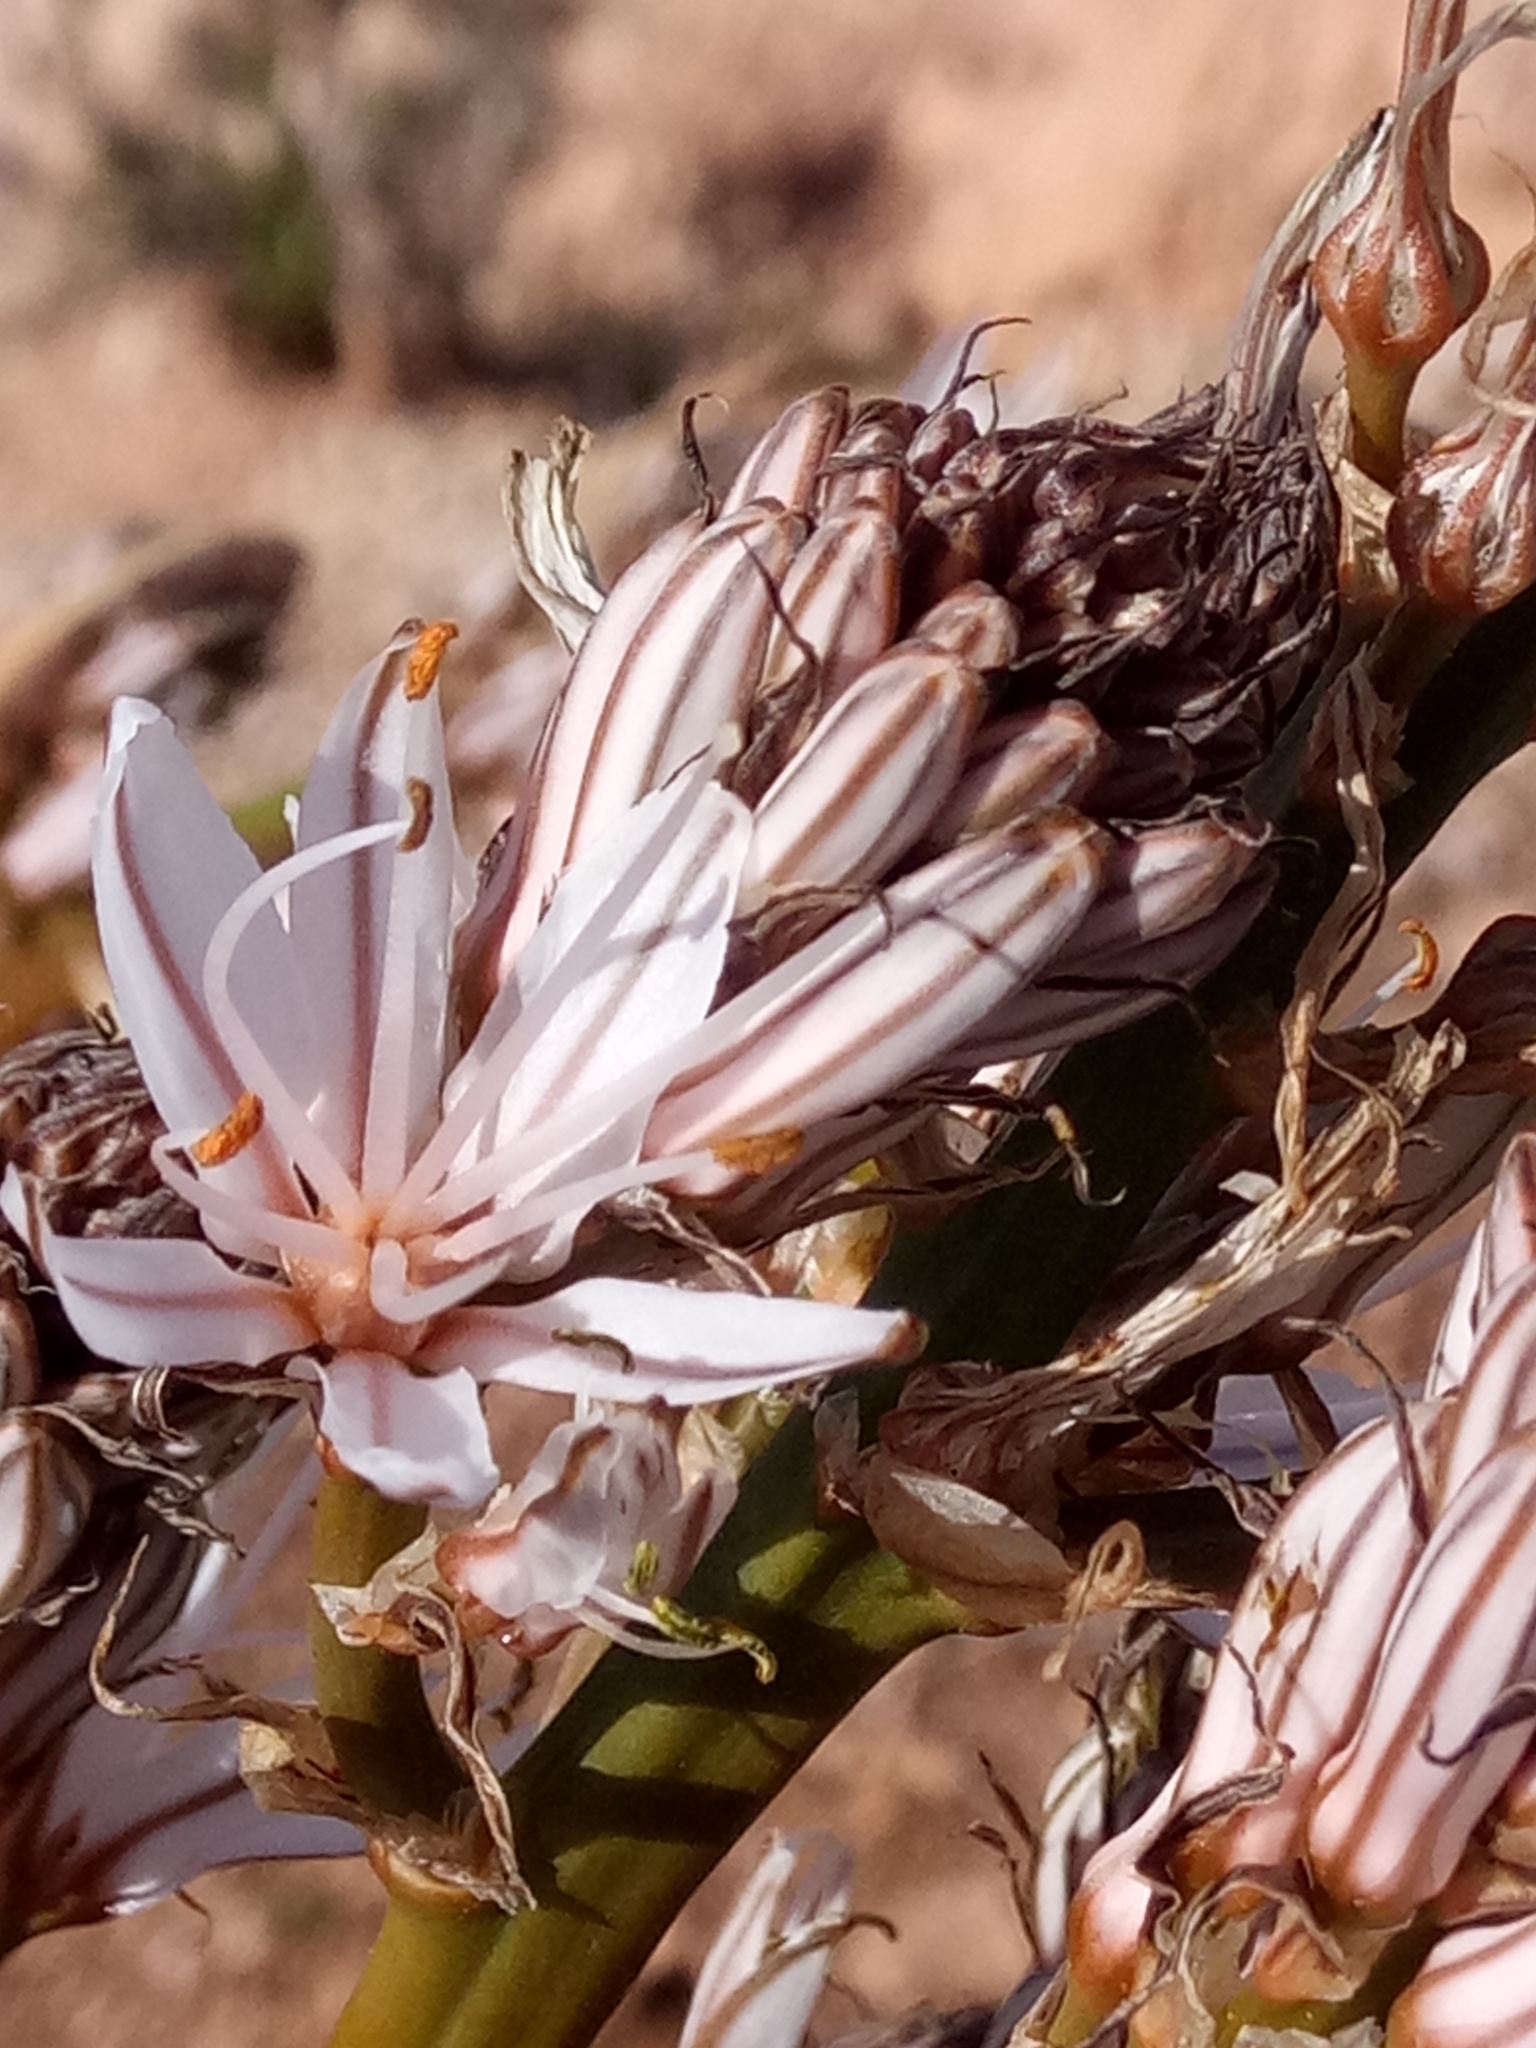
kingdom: Plantae
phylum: Tracheophyta
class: Liliopsida
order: Asparagales
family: Asphodelaceae
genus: Asphodelus
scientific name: Asphodelus ramosus
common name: Silverrod
